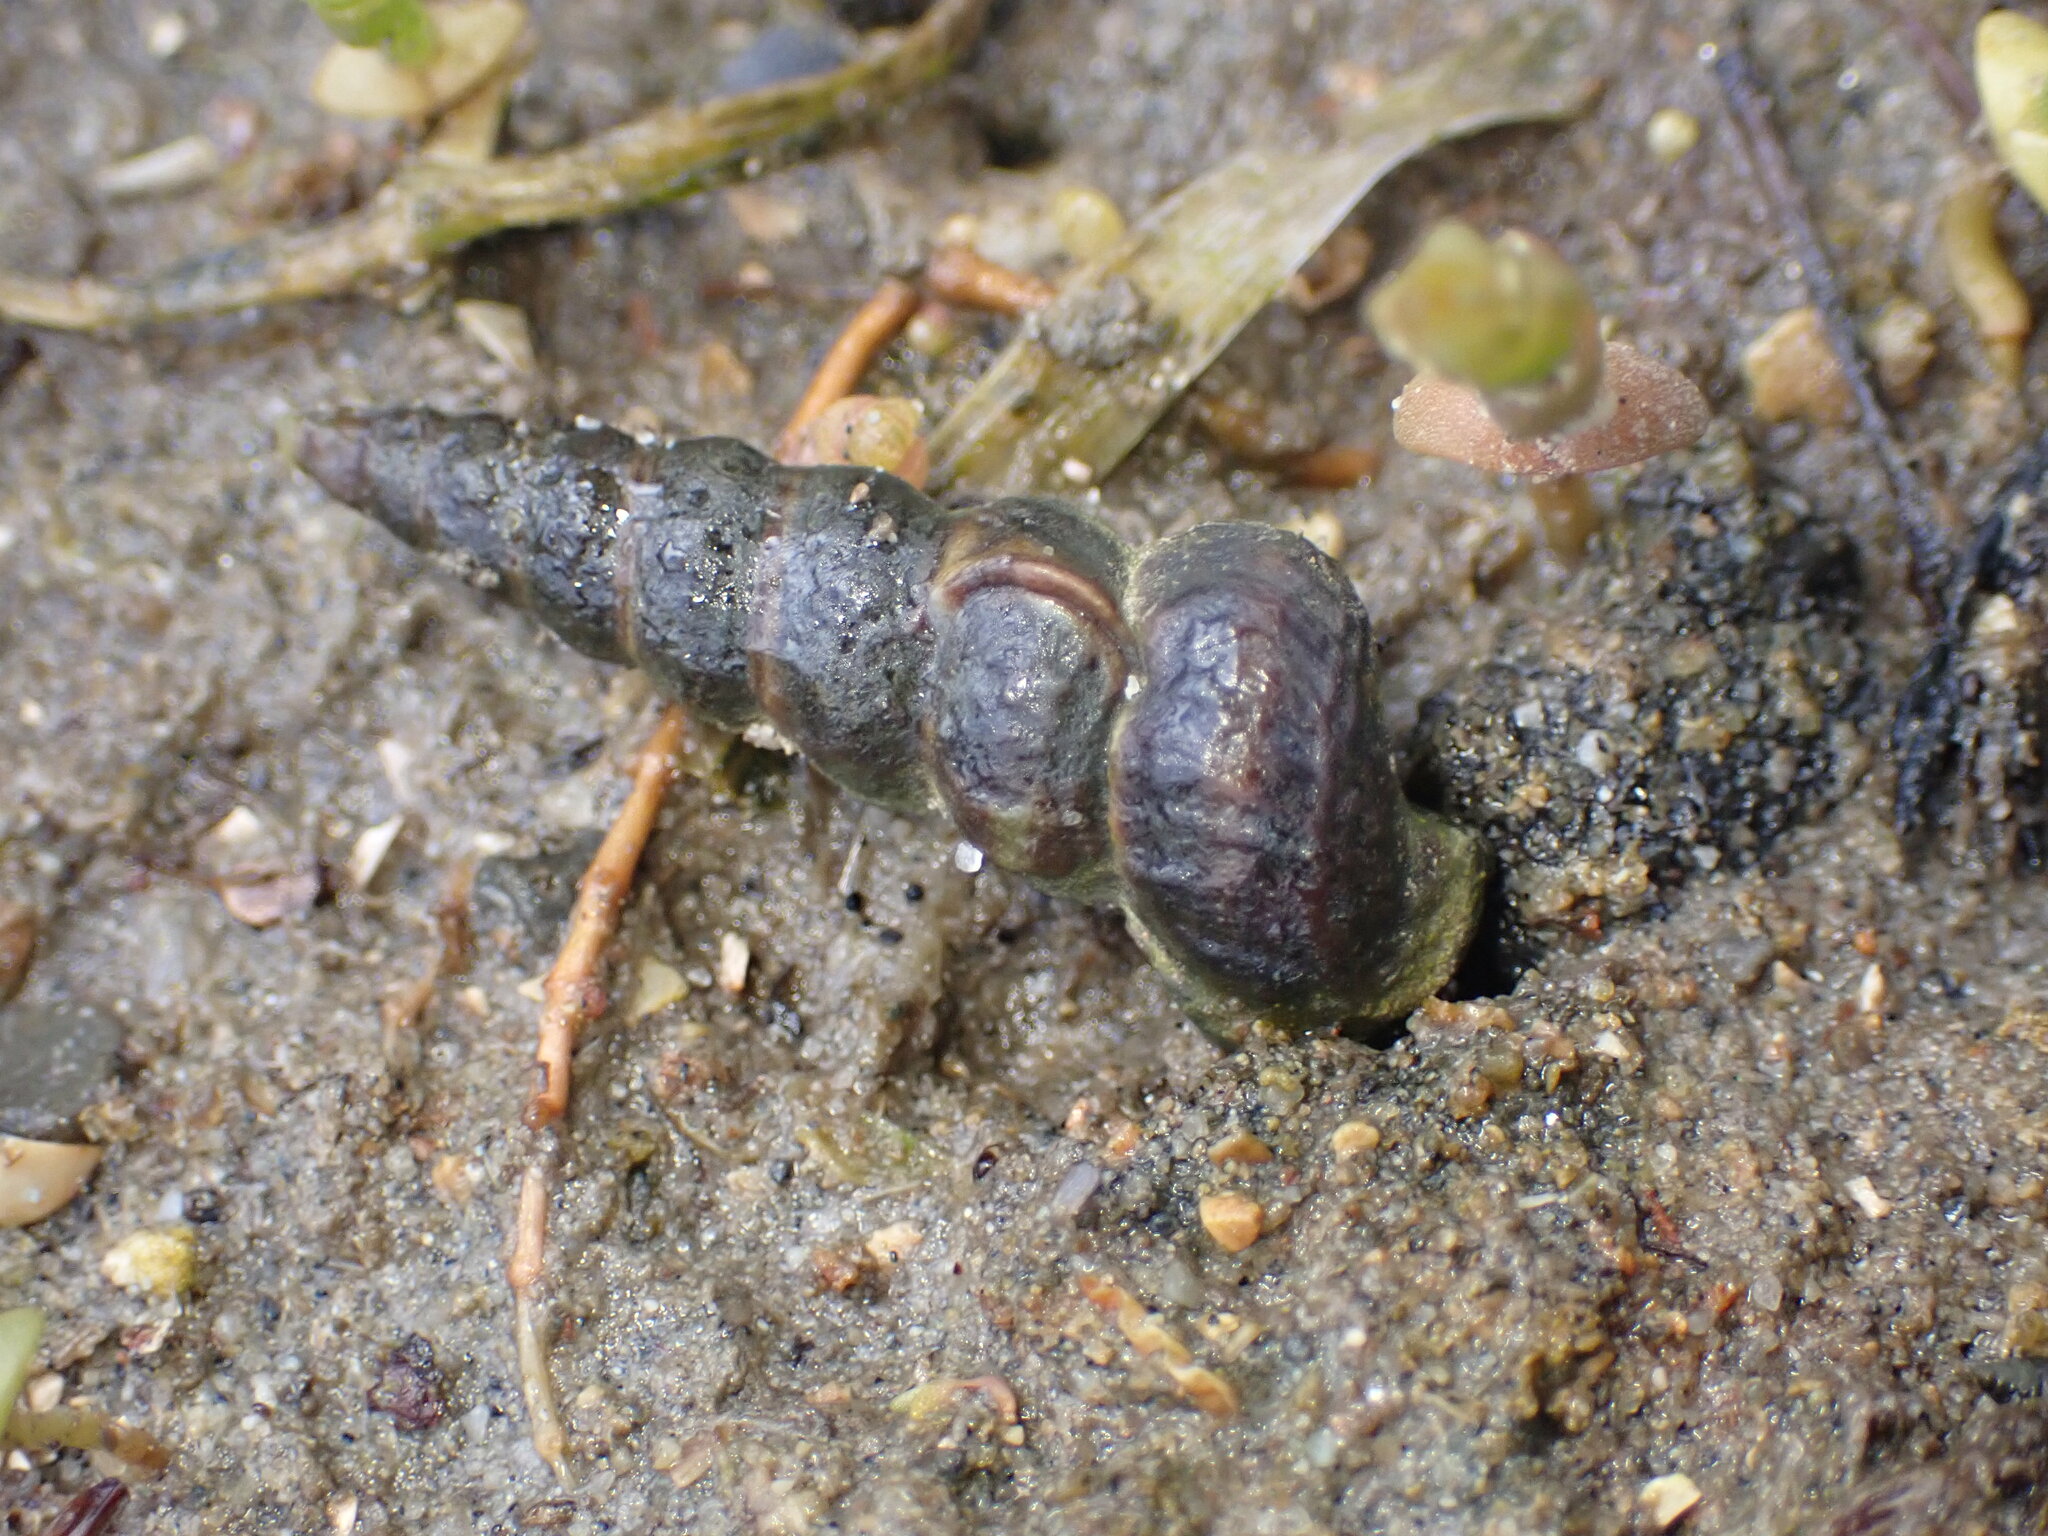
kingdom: Animalia
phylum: Mollusca
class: Gastropoda
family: Potamididae
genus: Cerithideopsis
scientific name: Cerithideopsis californica
